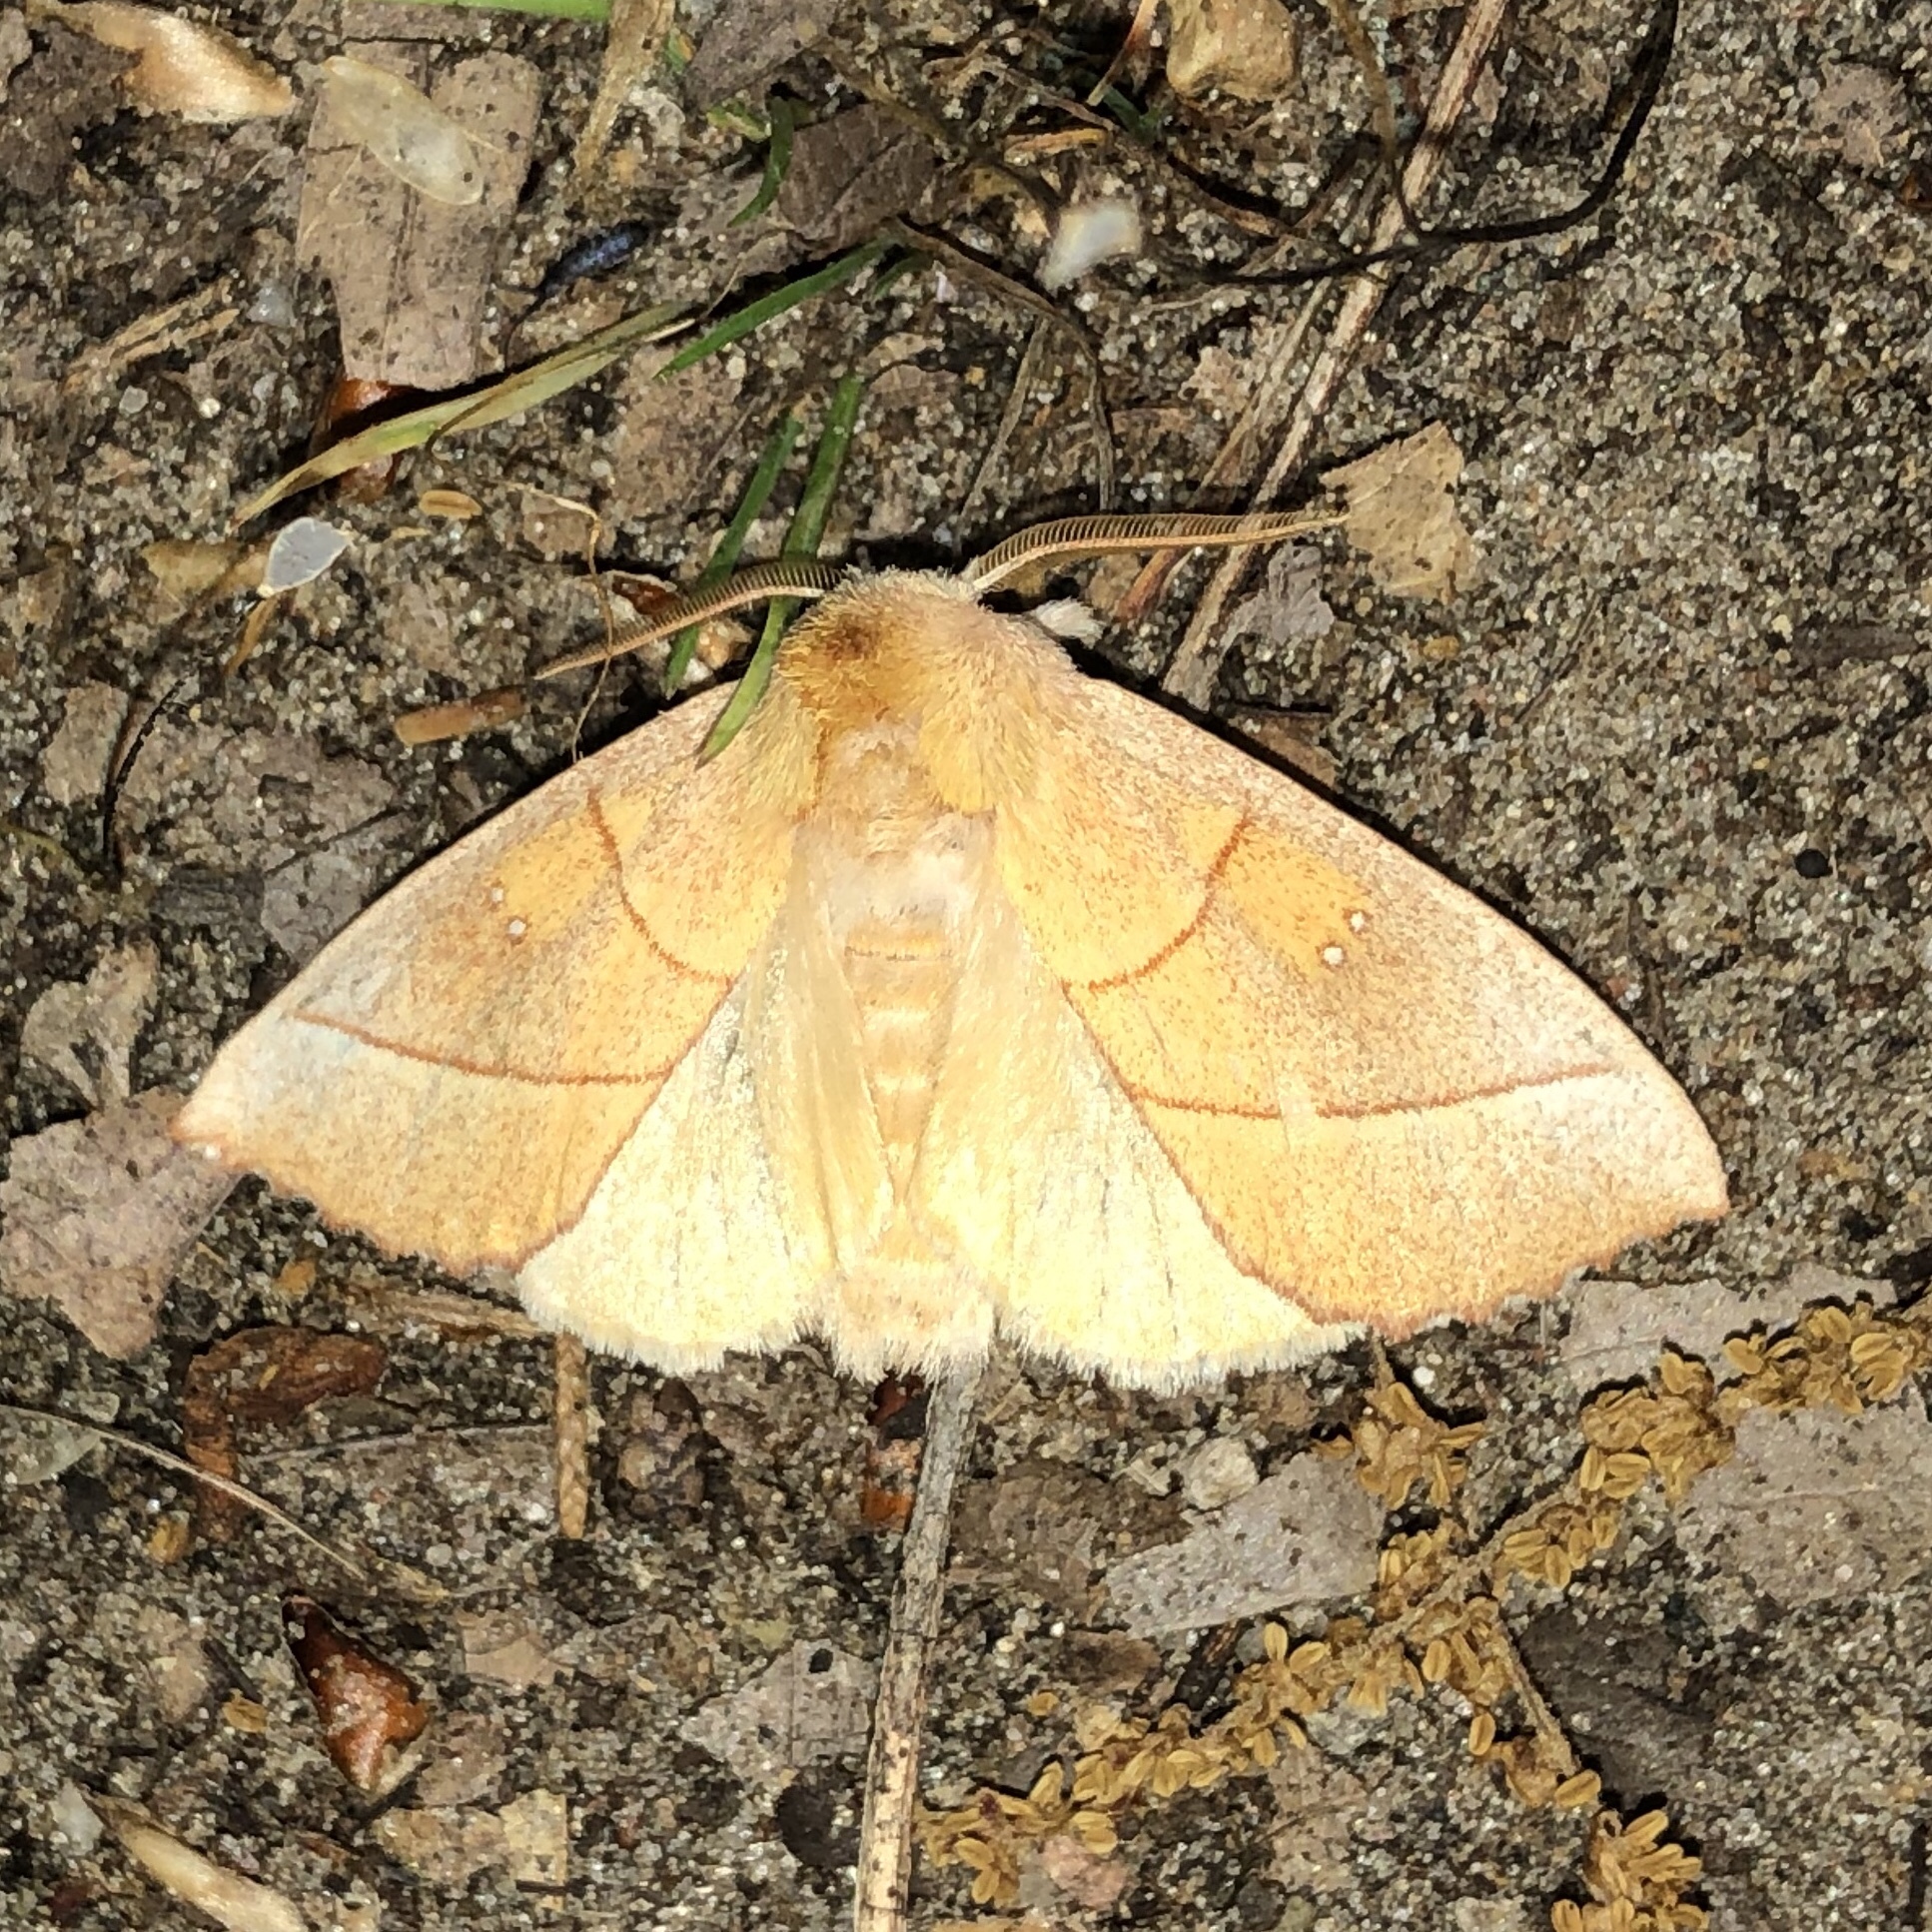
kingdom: Animalia
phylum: Arthropoda
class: Insecta
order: Lepidoptera
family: Notodontidae
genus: Nadata
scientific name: Nadata gibbosa
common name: White-dotted prominent
